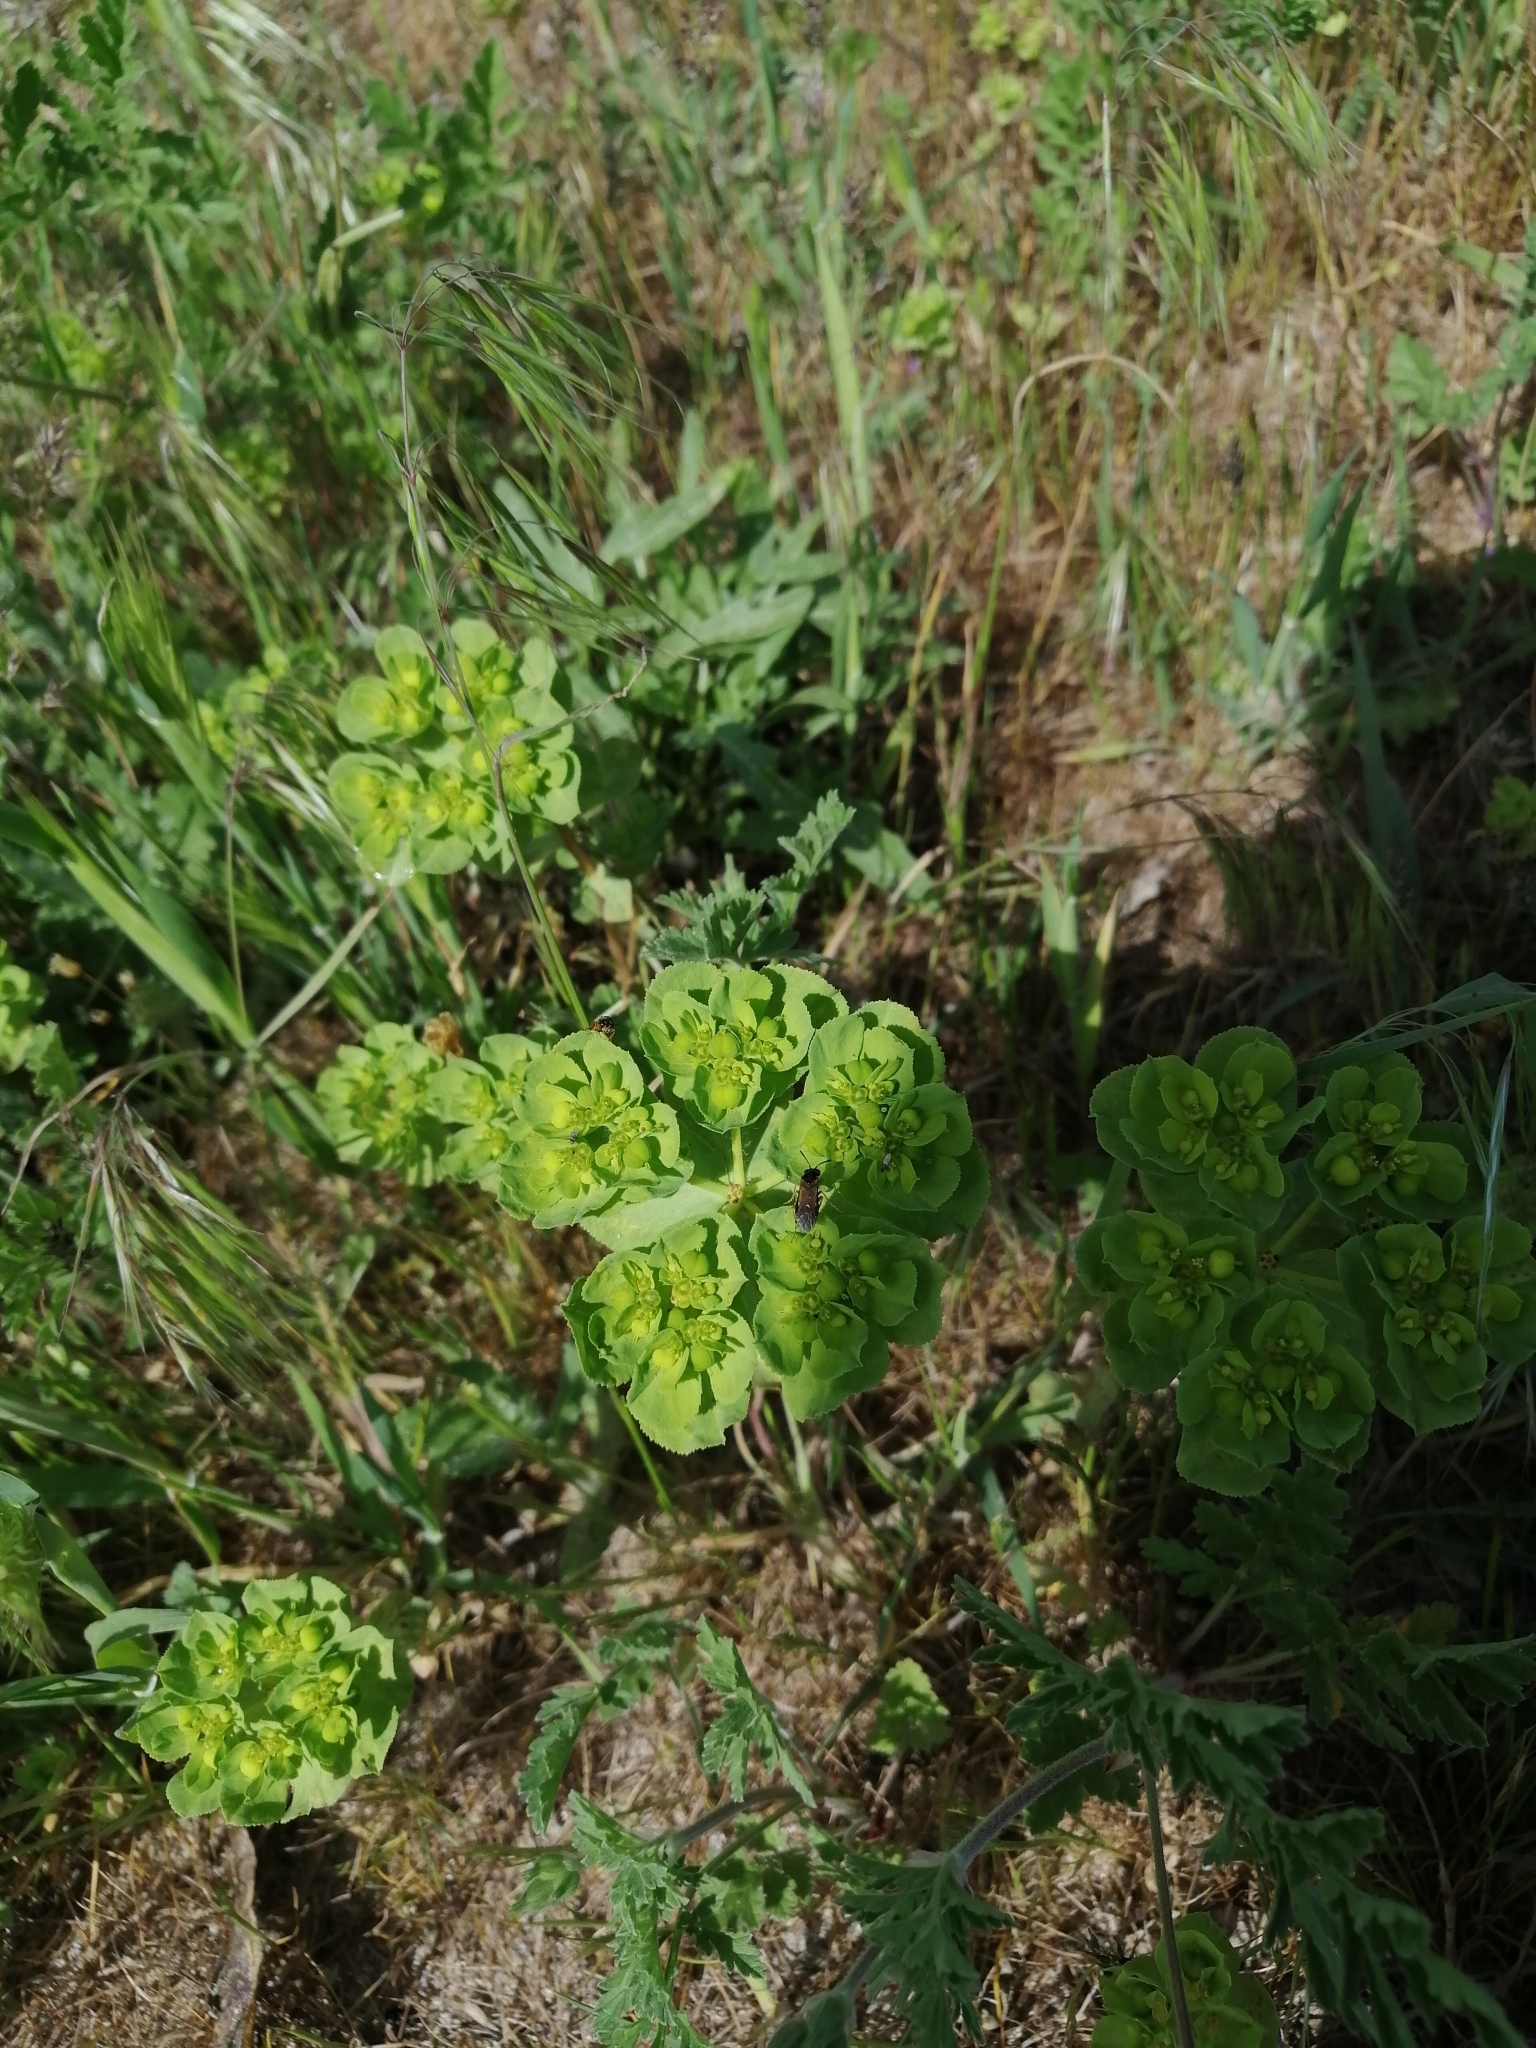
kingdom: Plantae
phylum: Tracheophyta
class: Magnoliopsida
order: Malpighiales
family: Euphorbiaceae
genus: Euphorbia
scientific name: Euphorbia helioscopia
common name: Sun spurge
